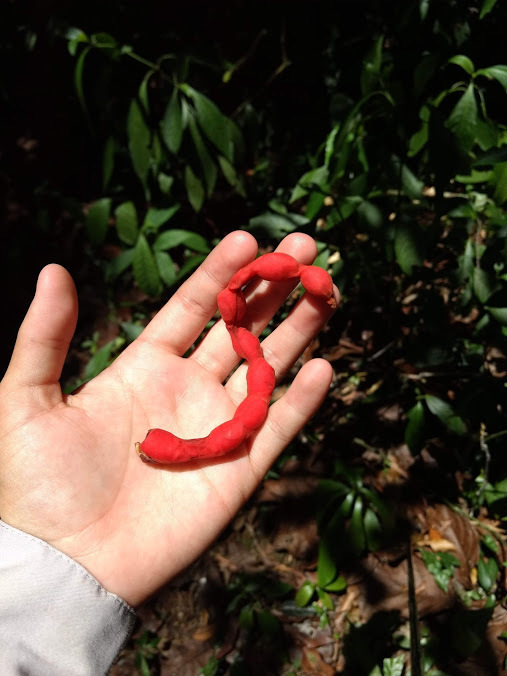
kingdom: Plantae
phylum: Tracheophyta
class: Magnoliopsida
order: Fabales
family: Fabaceae
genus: Cojoba
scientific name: Cojoba arborea
